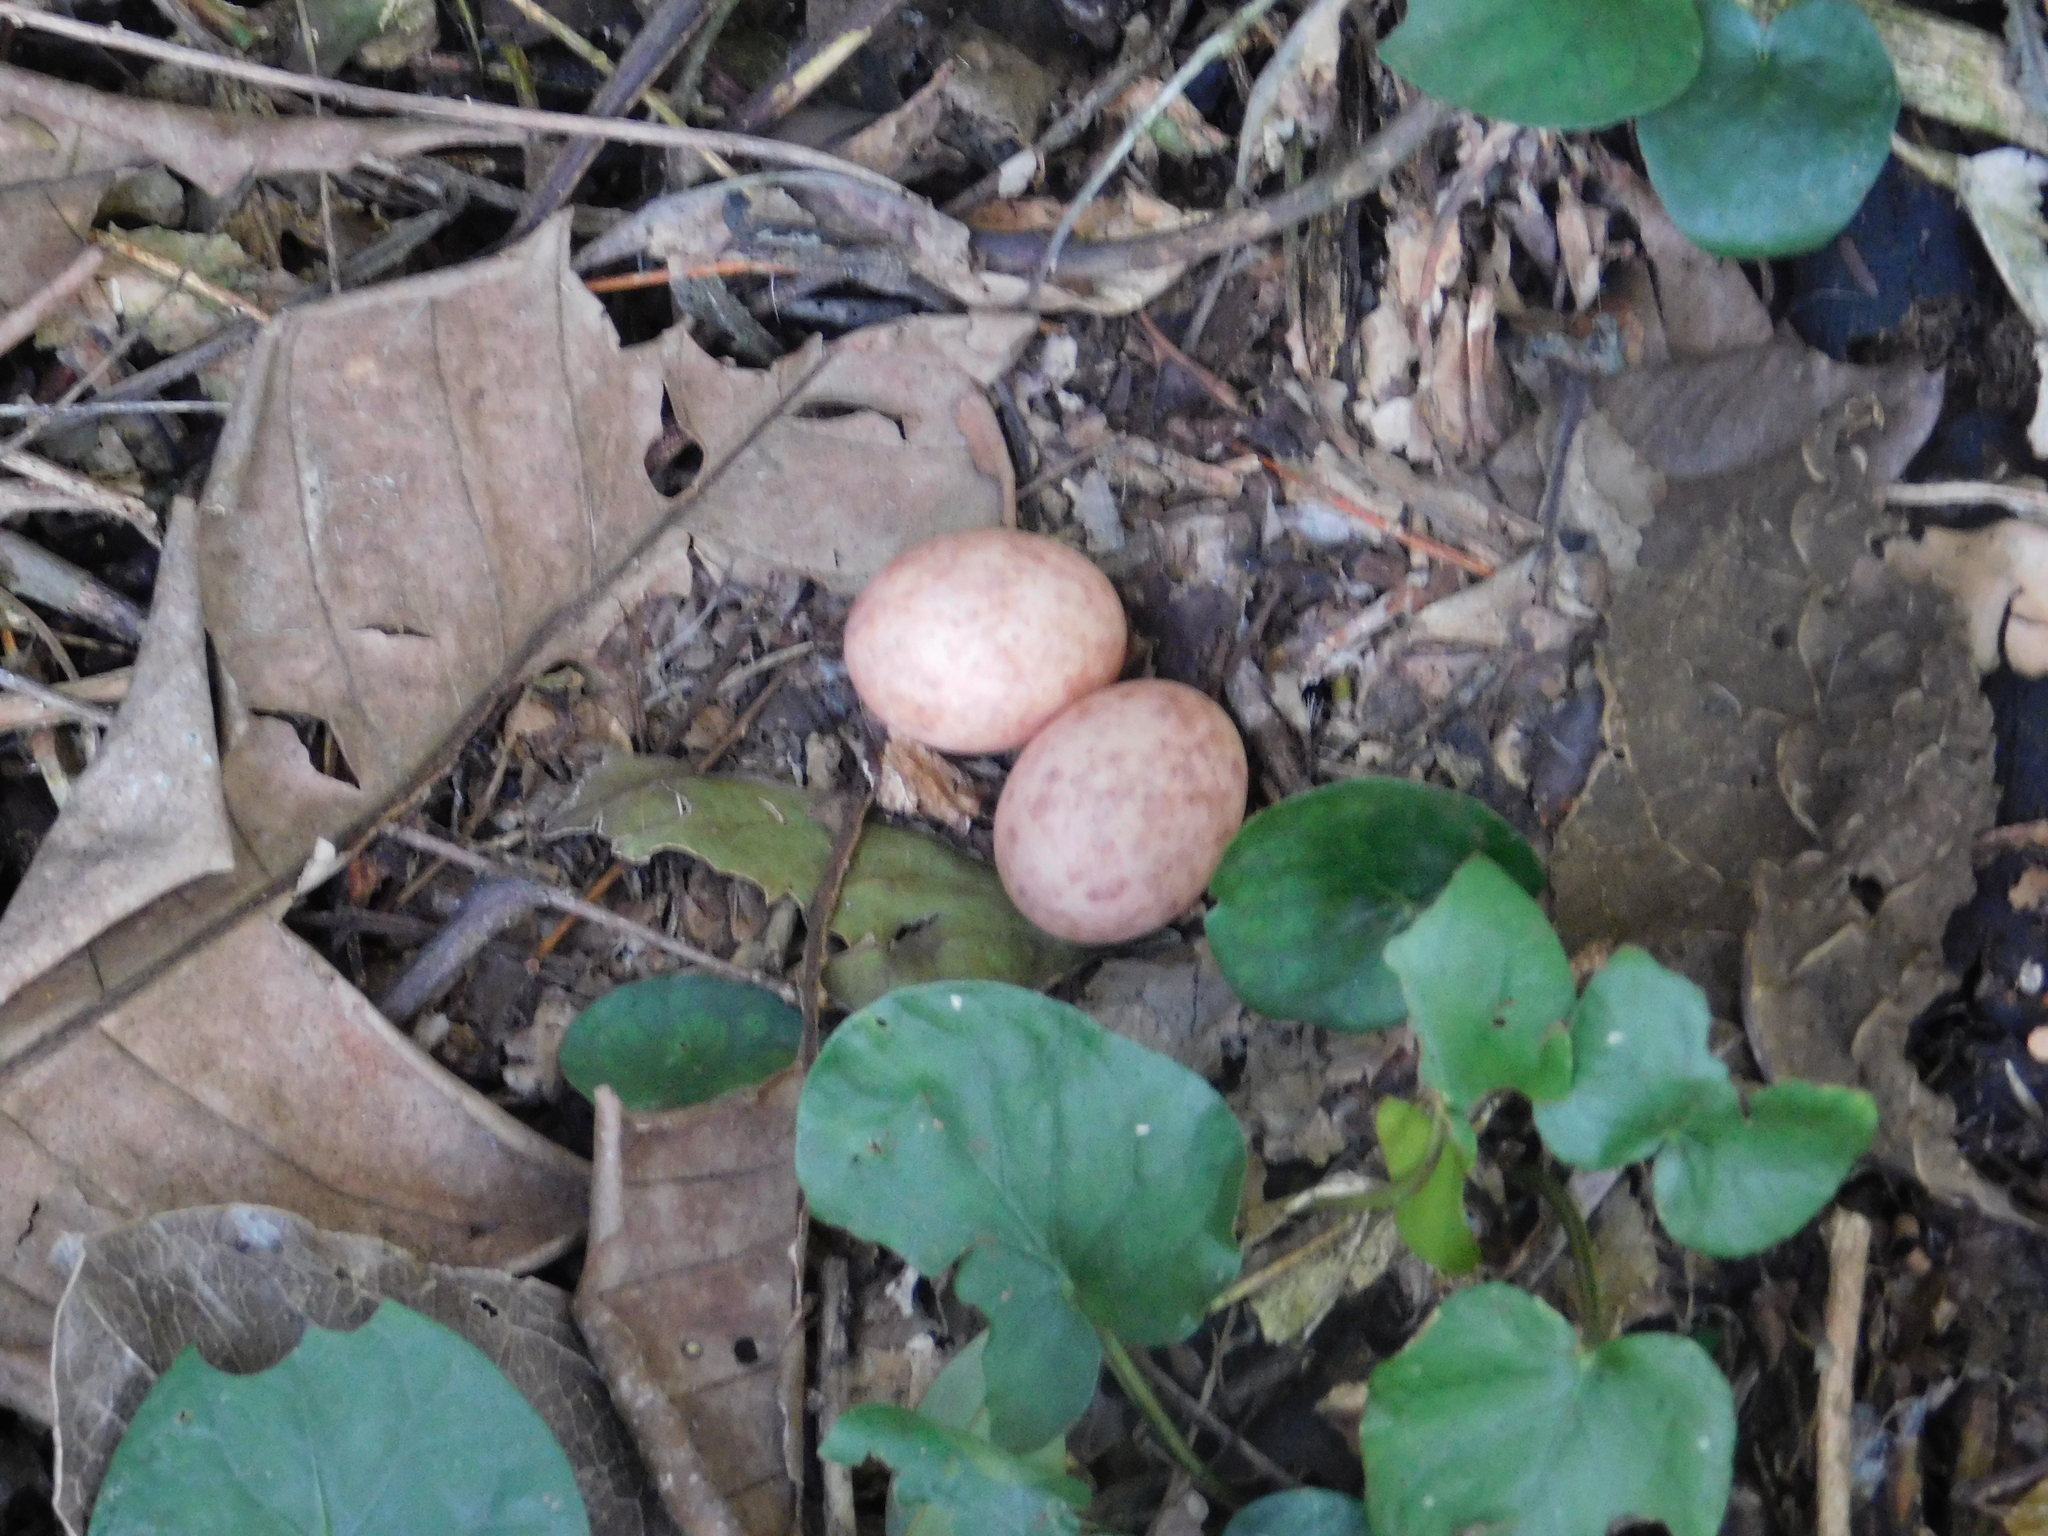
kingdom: Animalia
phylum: Chordata
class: Aves
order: Caprimulgiformes
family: Caprimulgidae
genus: Nyctidromus
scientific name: Nyctidromus albicollis
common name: Pauraque
